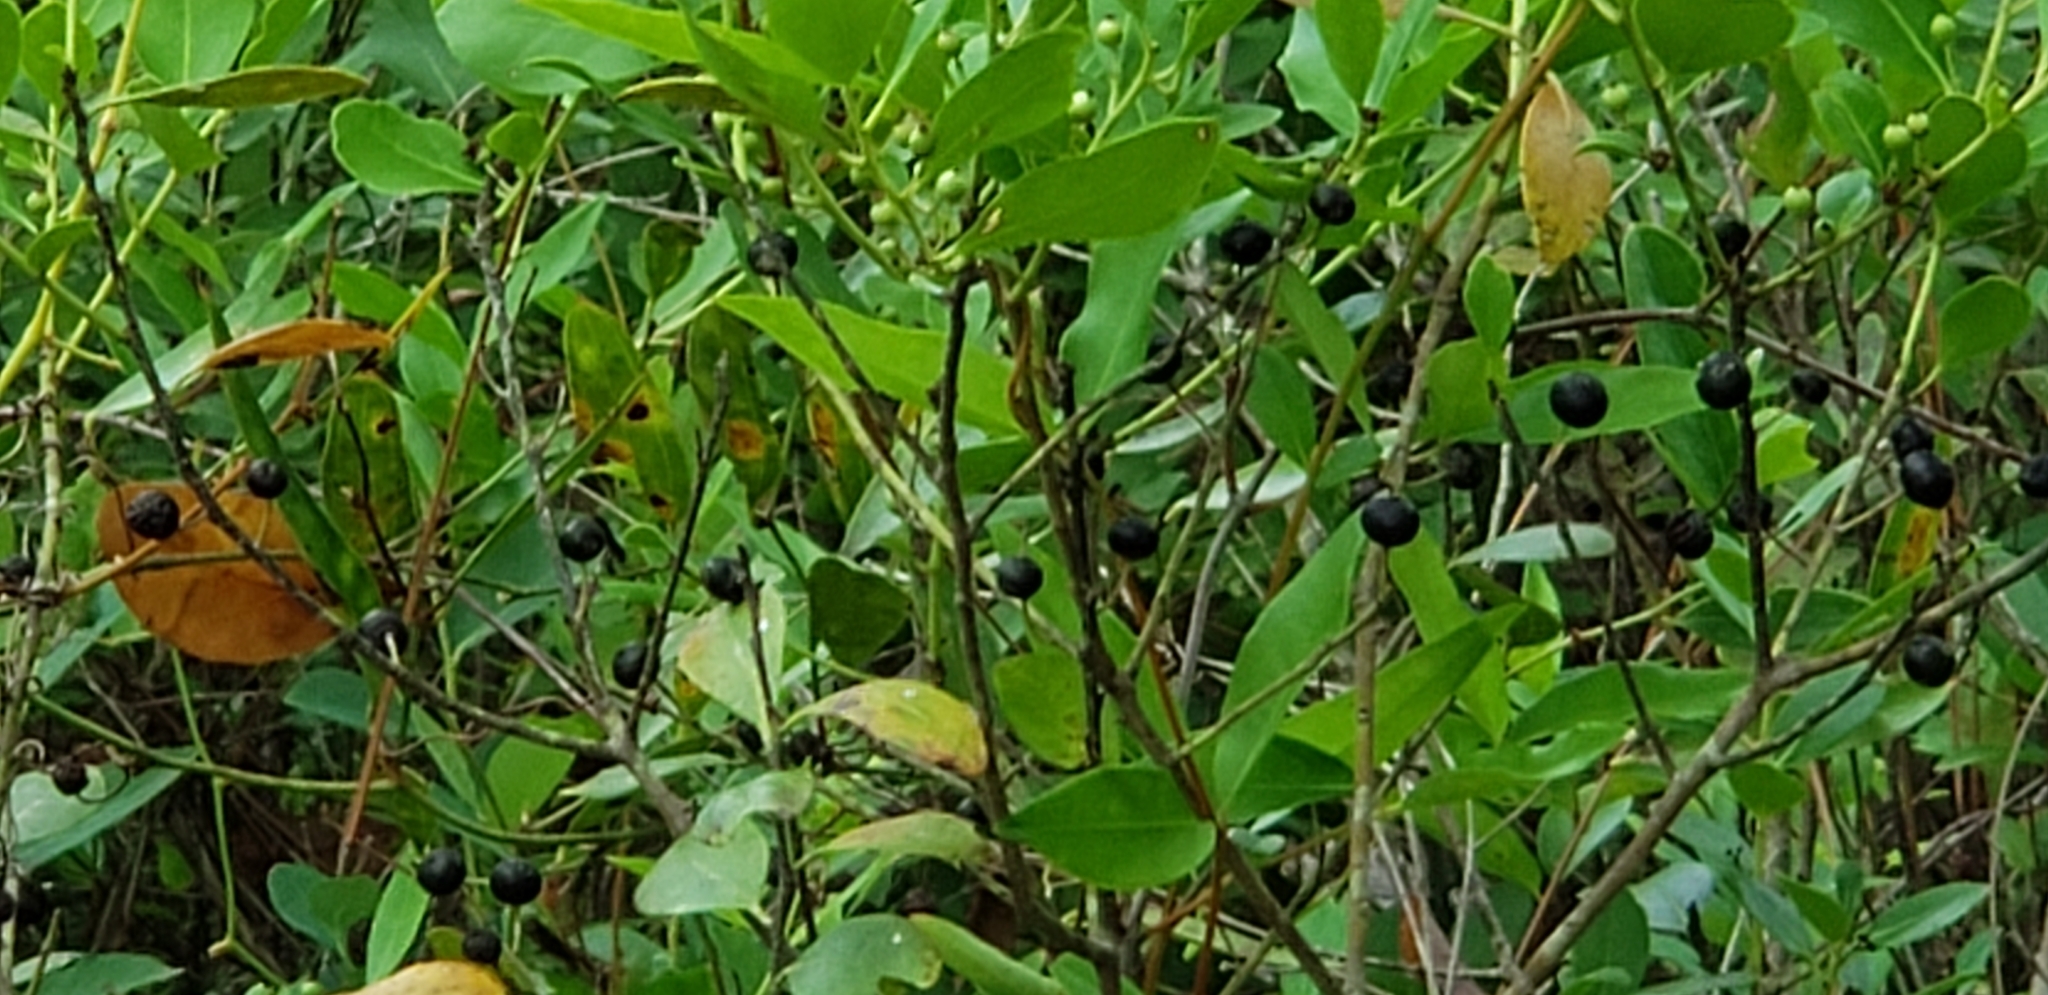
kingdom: Plantae
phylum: Tracheophyta
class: Magnoliopsida
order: Aquifoliales
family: Aquifoliaceae
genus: Ilex
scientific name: Ilex glabra
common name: Bitter gallberry
